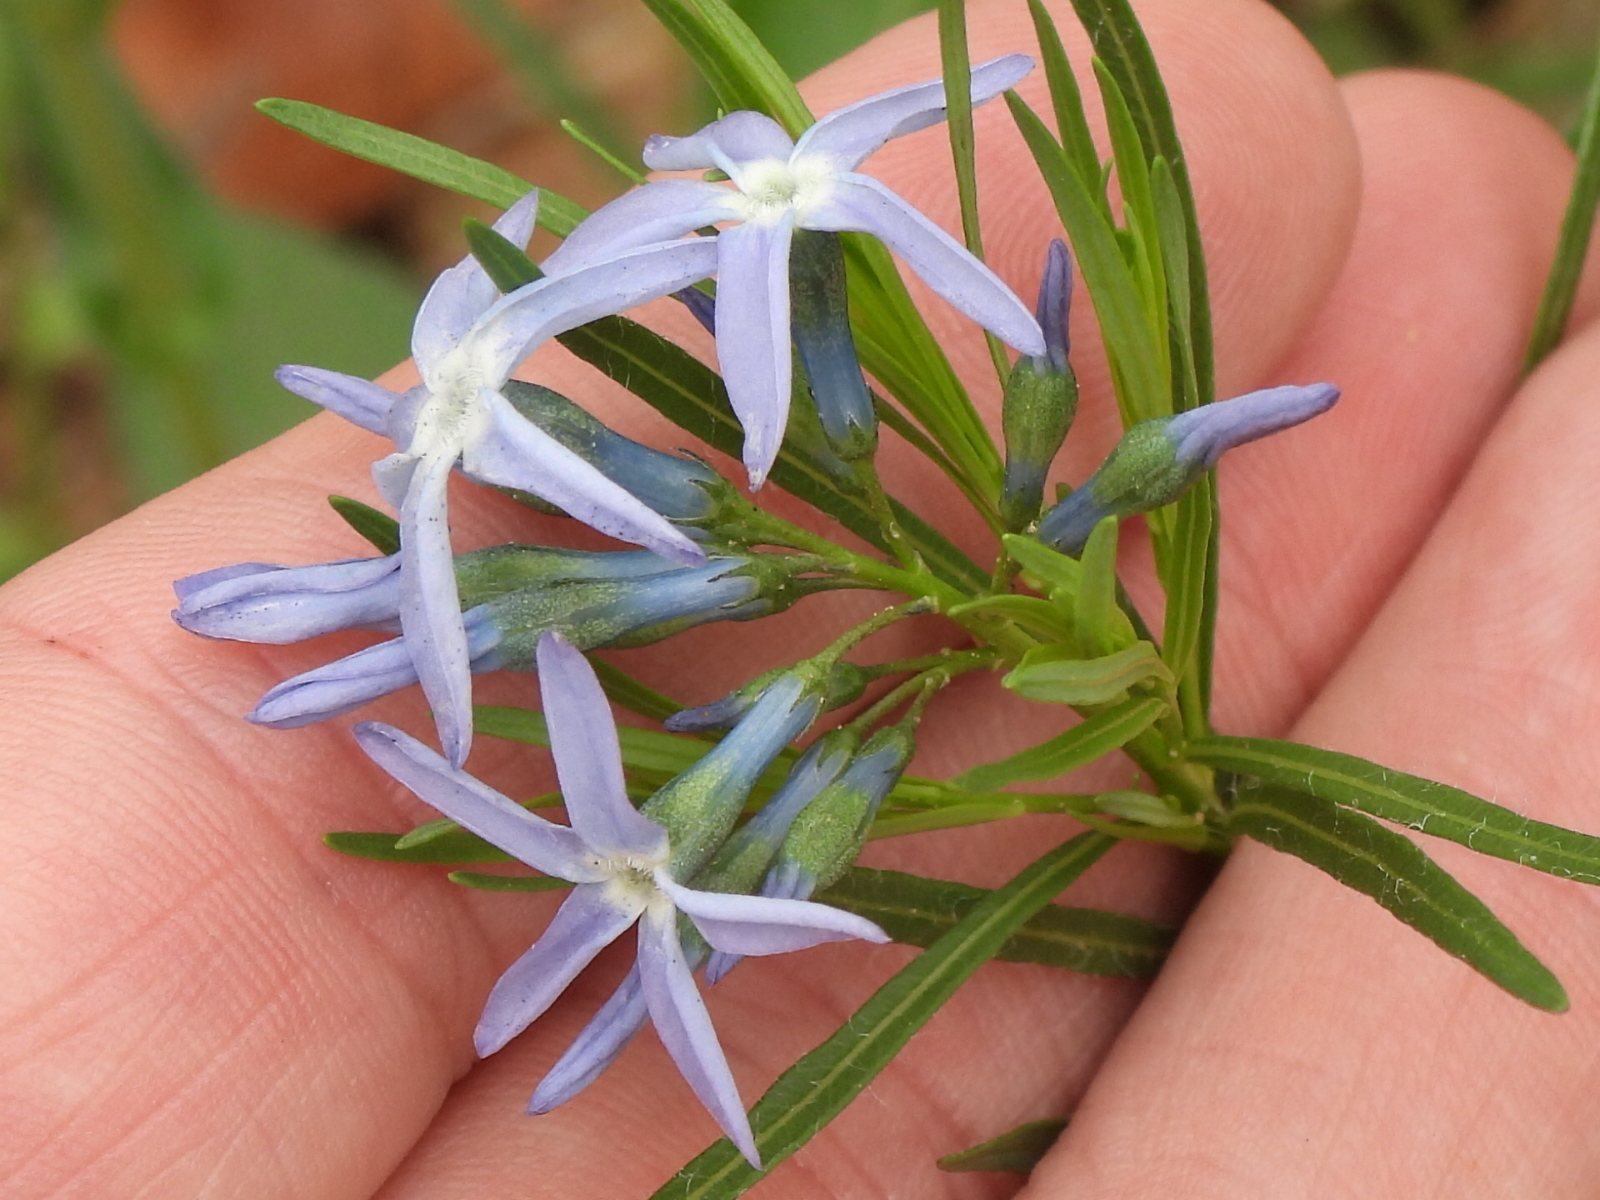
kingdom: Plantae
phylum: Tracheophyta
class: Magnoliopsida
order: Gentianales
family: Apocynaceae
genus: Amsonia
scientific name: Amsonia ciliata
